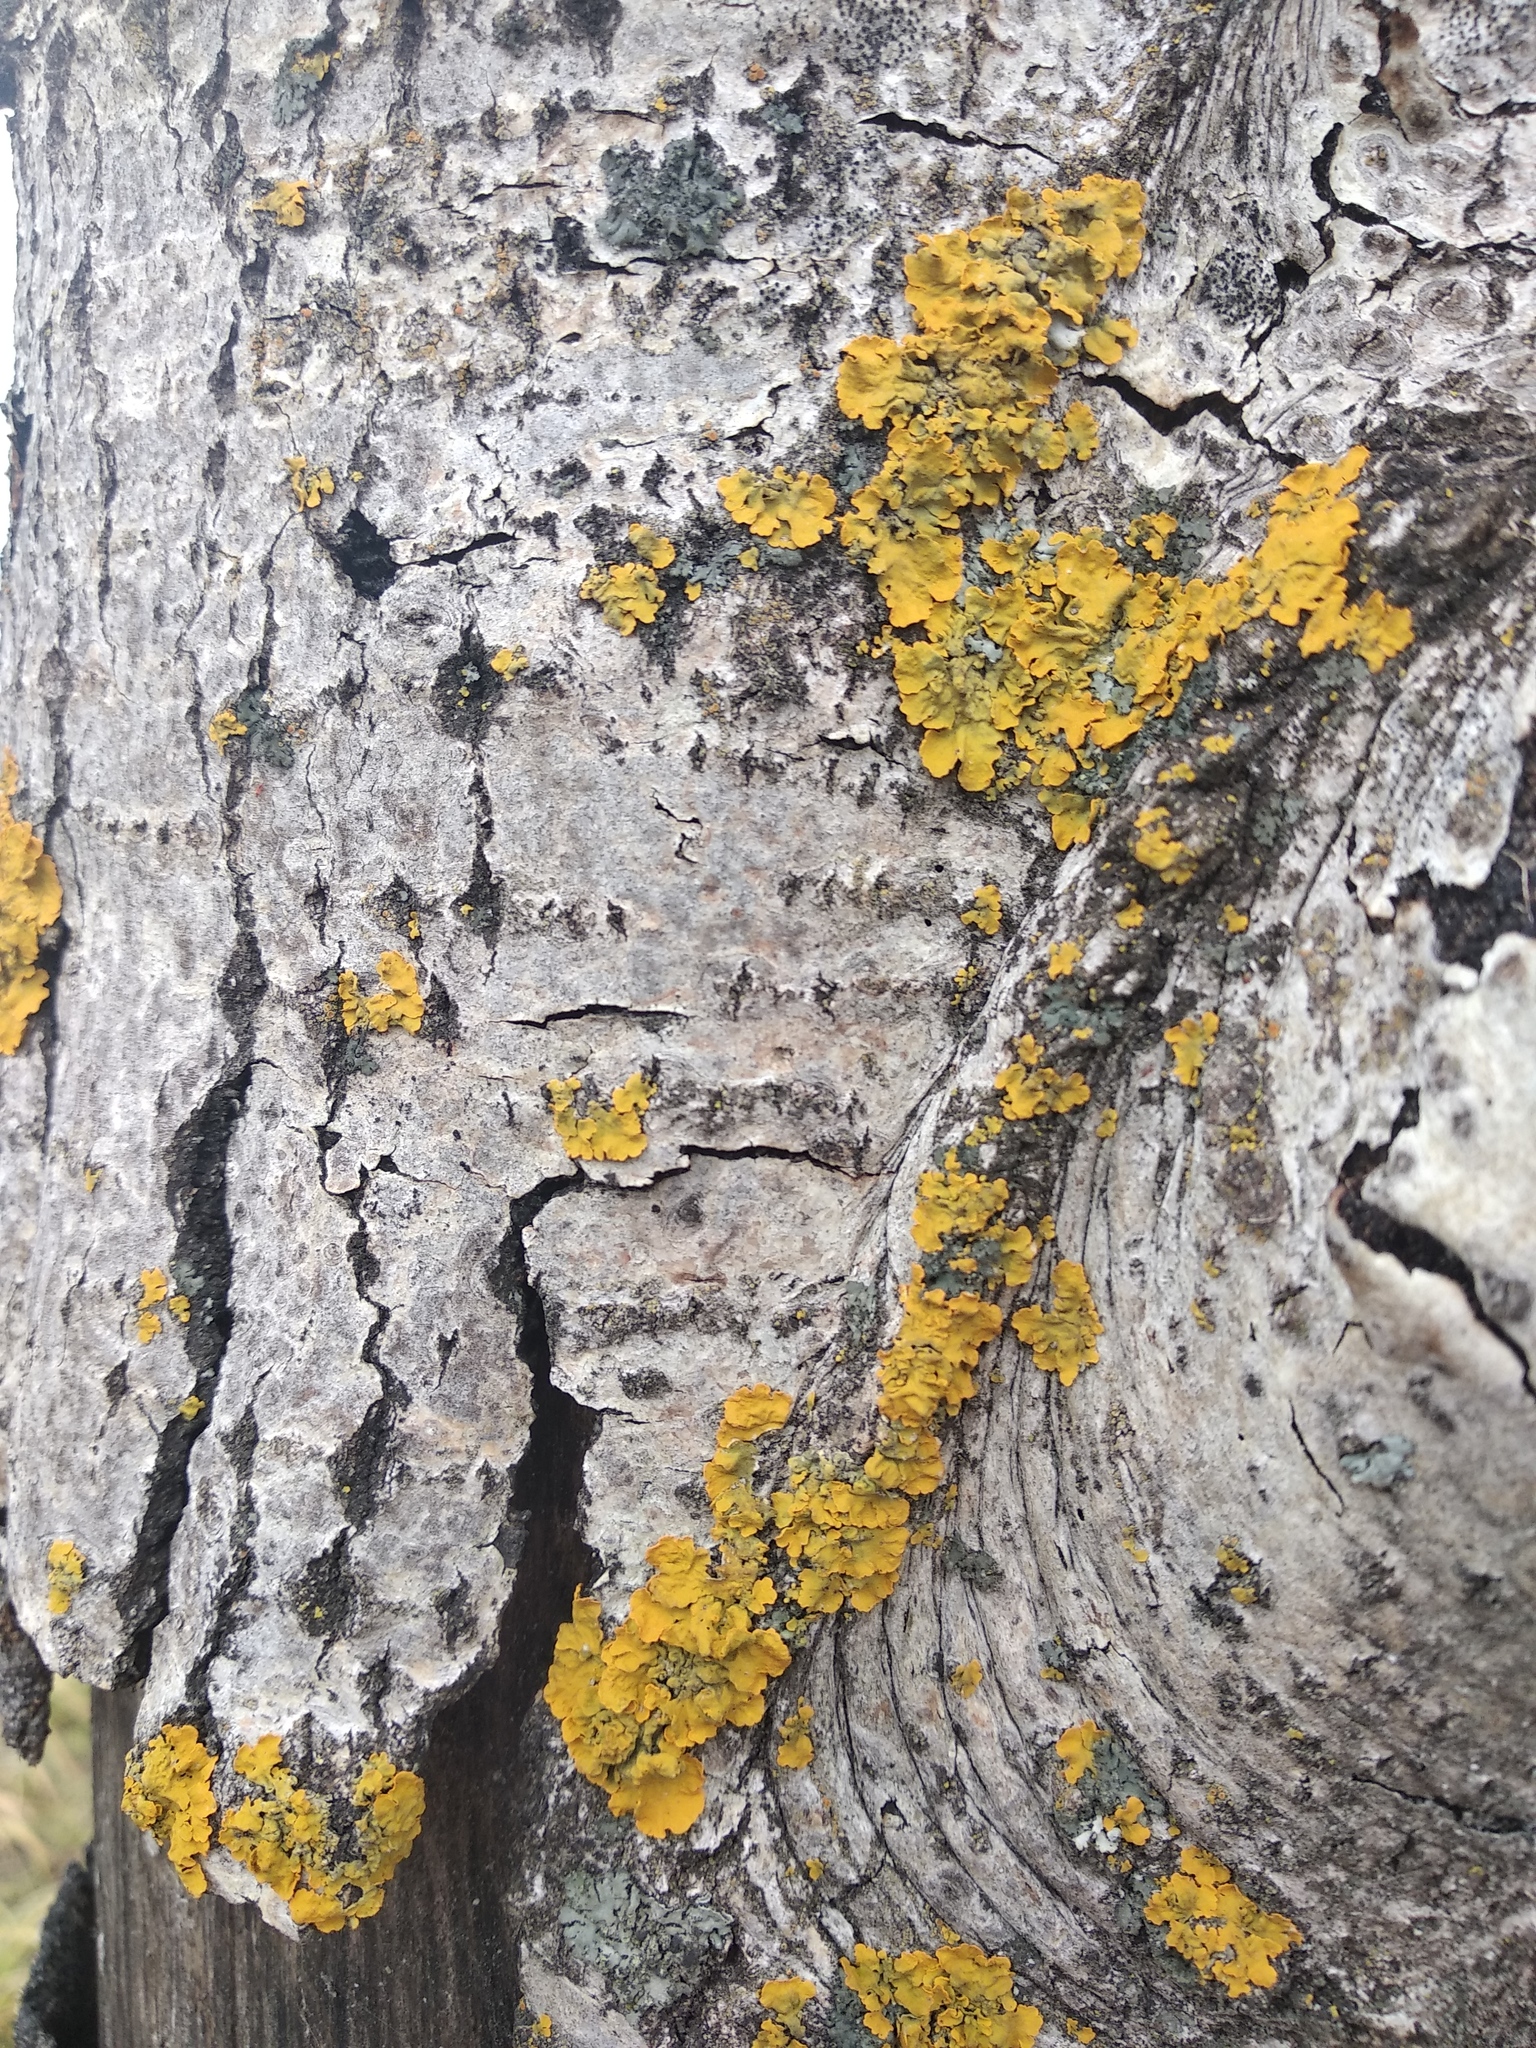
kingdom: Fungi
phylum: Ascomycota
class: Lecanoromycetes
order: Teloschistales
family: Teloschistaceae
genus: Xanthoria
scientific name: Xanthoria parietina
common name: Common orange lichen
